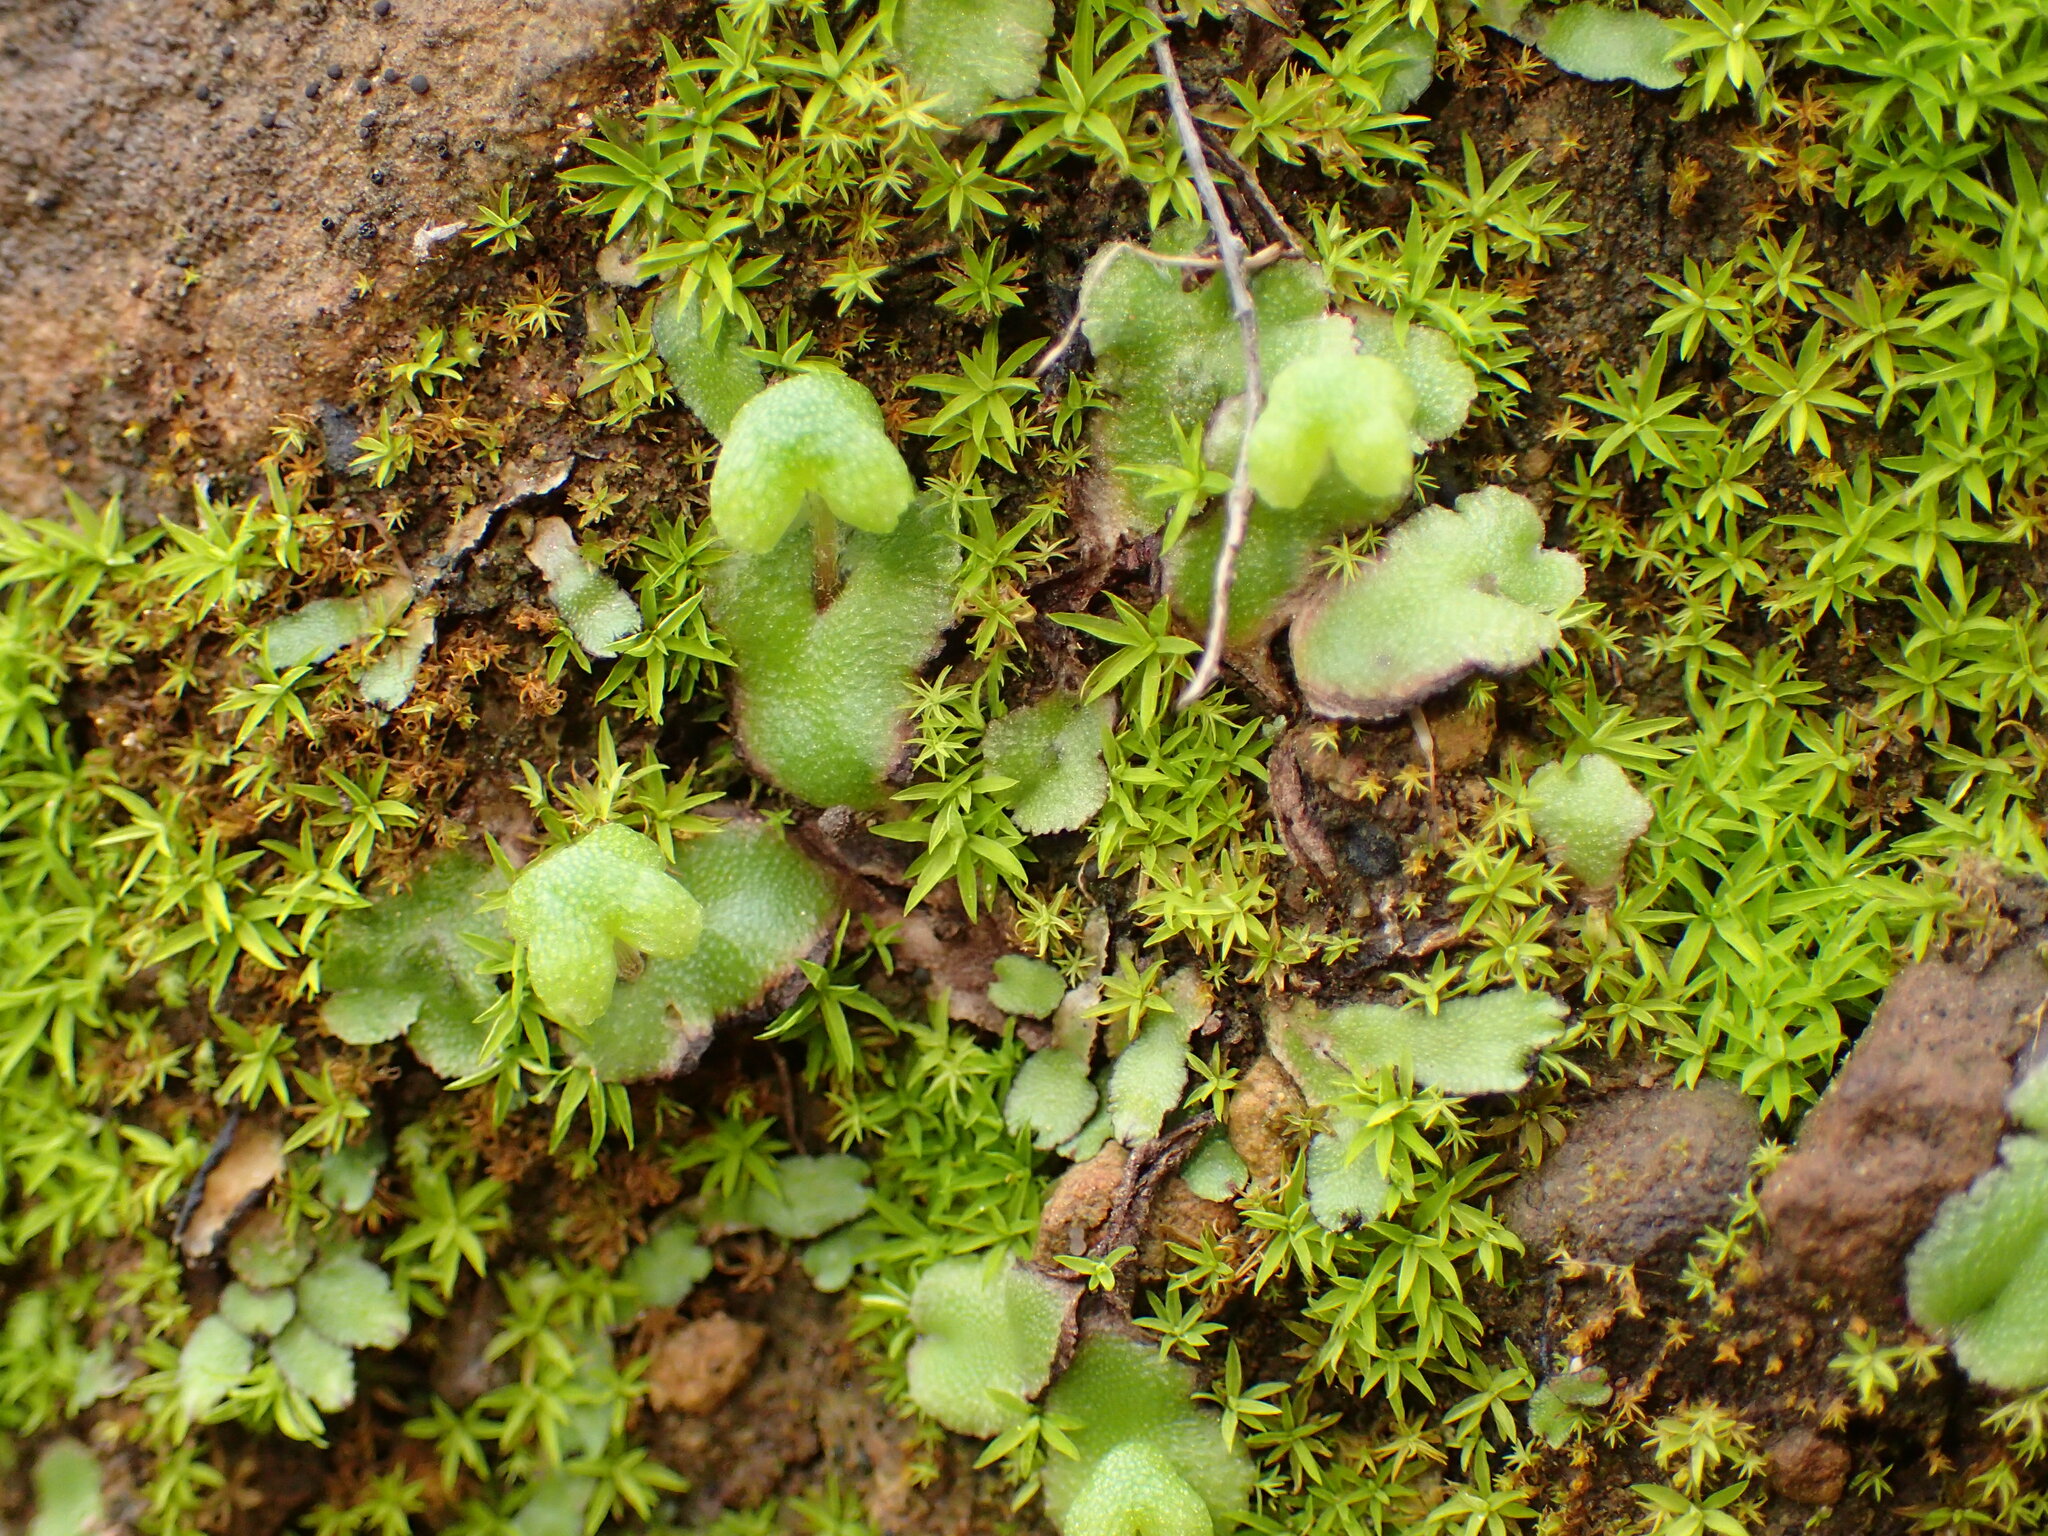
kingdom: Plantae
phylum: Marchantiophyta
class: Marchantiopsida
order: Marchantiales
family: Aytoniaceae
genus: Asterella
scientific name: Asterella californica
